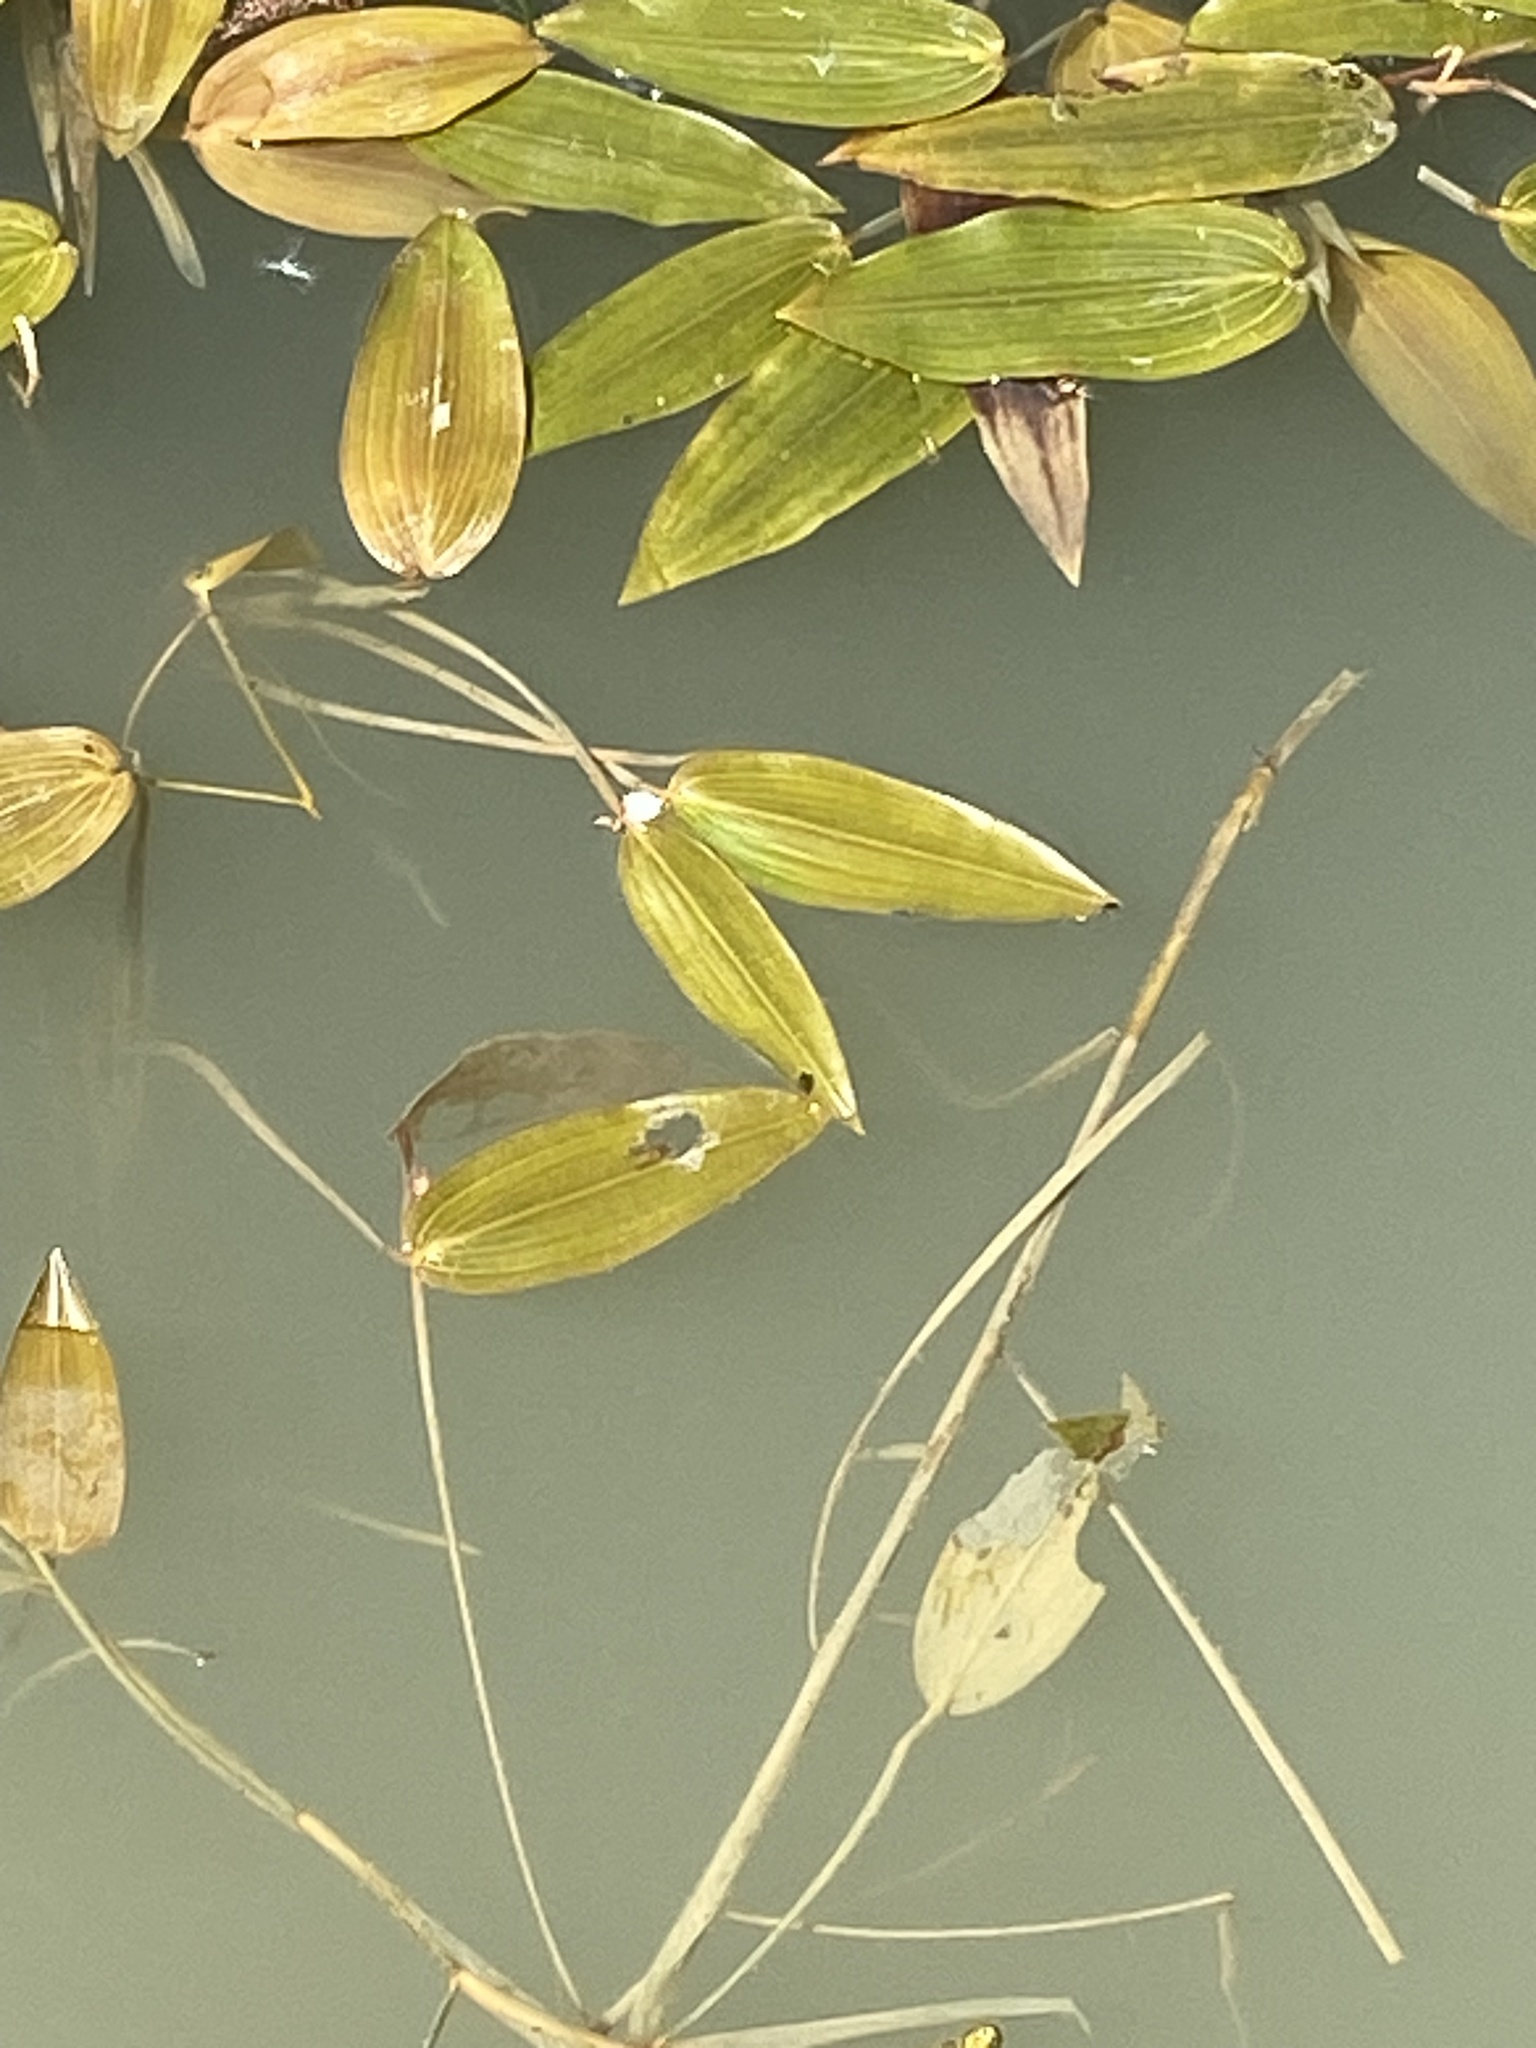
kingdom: Plantae
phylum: Tracheophyta
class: Liliopsida
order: Alismatales
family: Potamogetonaceae
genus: Potamogeton
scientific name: Potamogeton natans
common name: Broad-leaved pondweed
